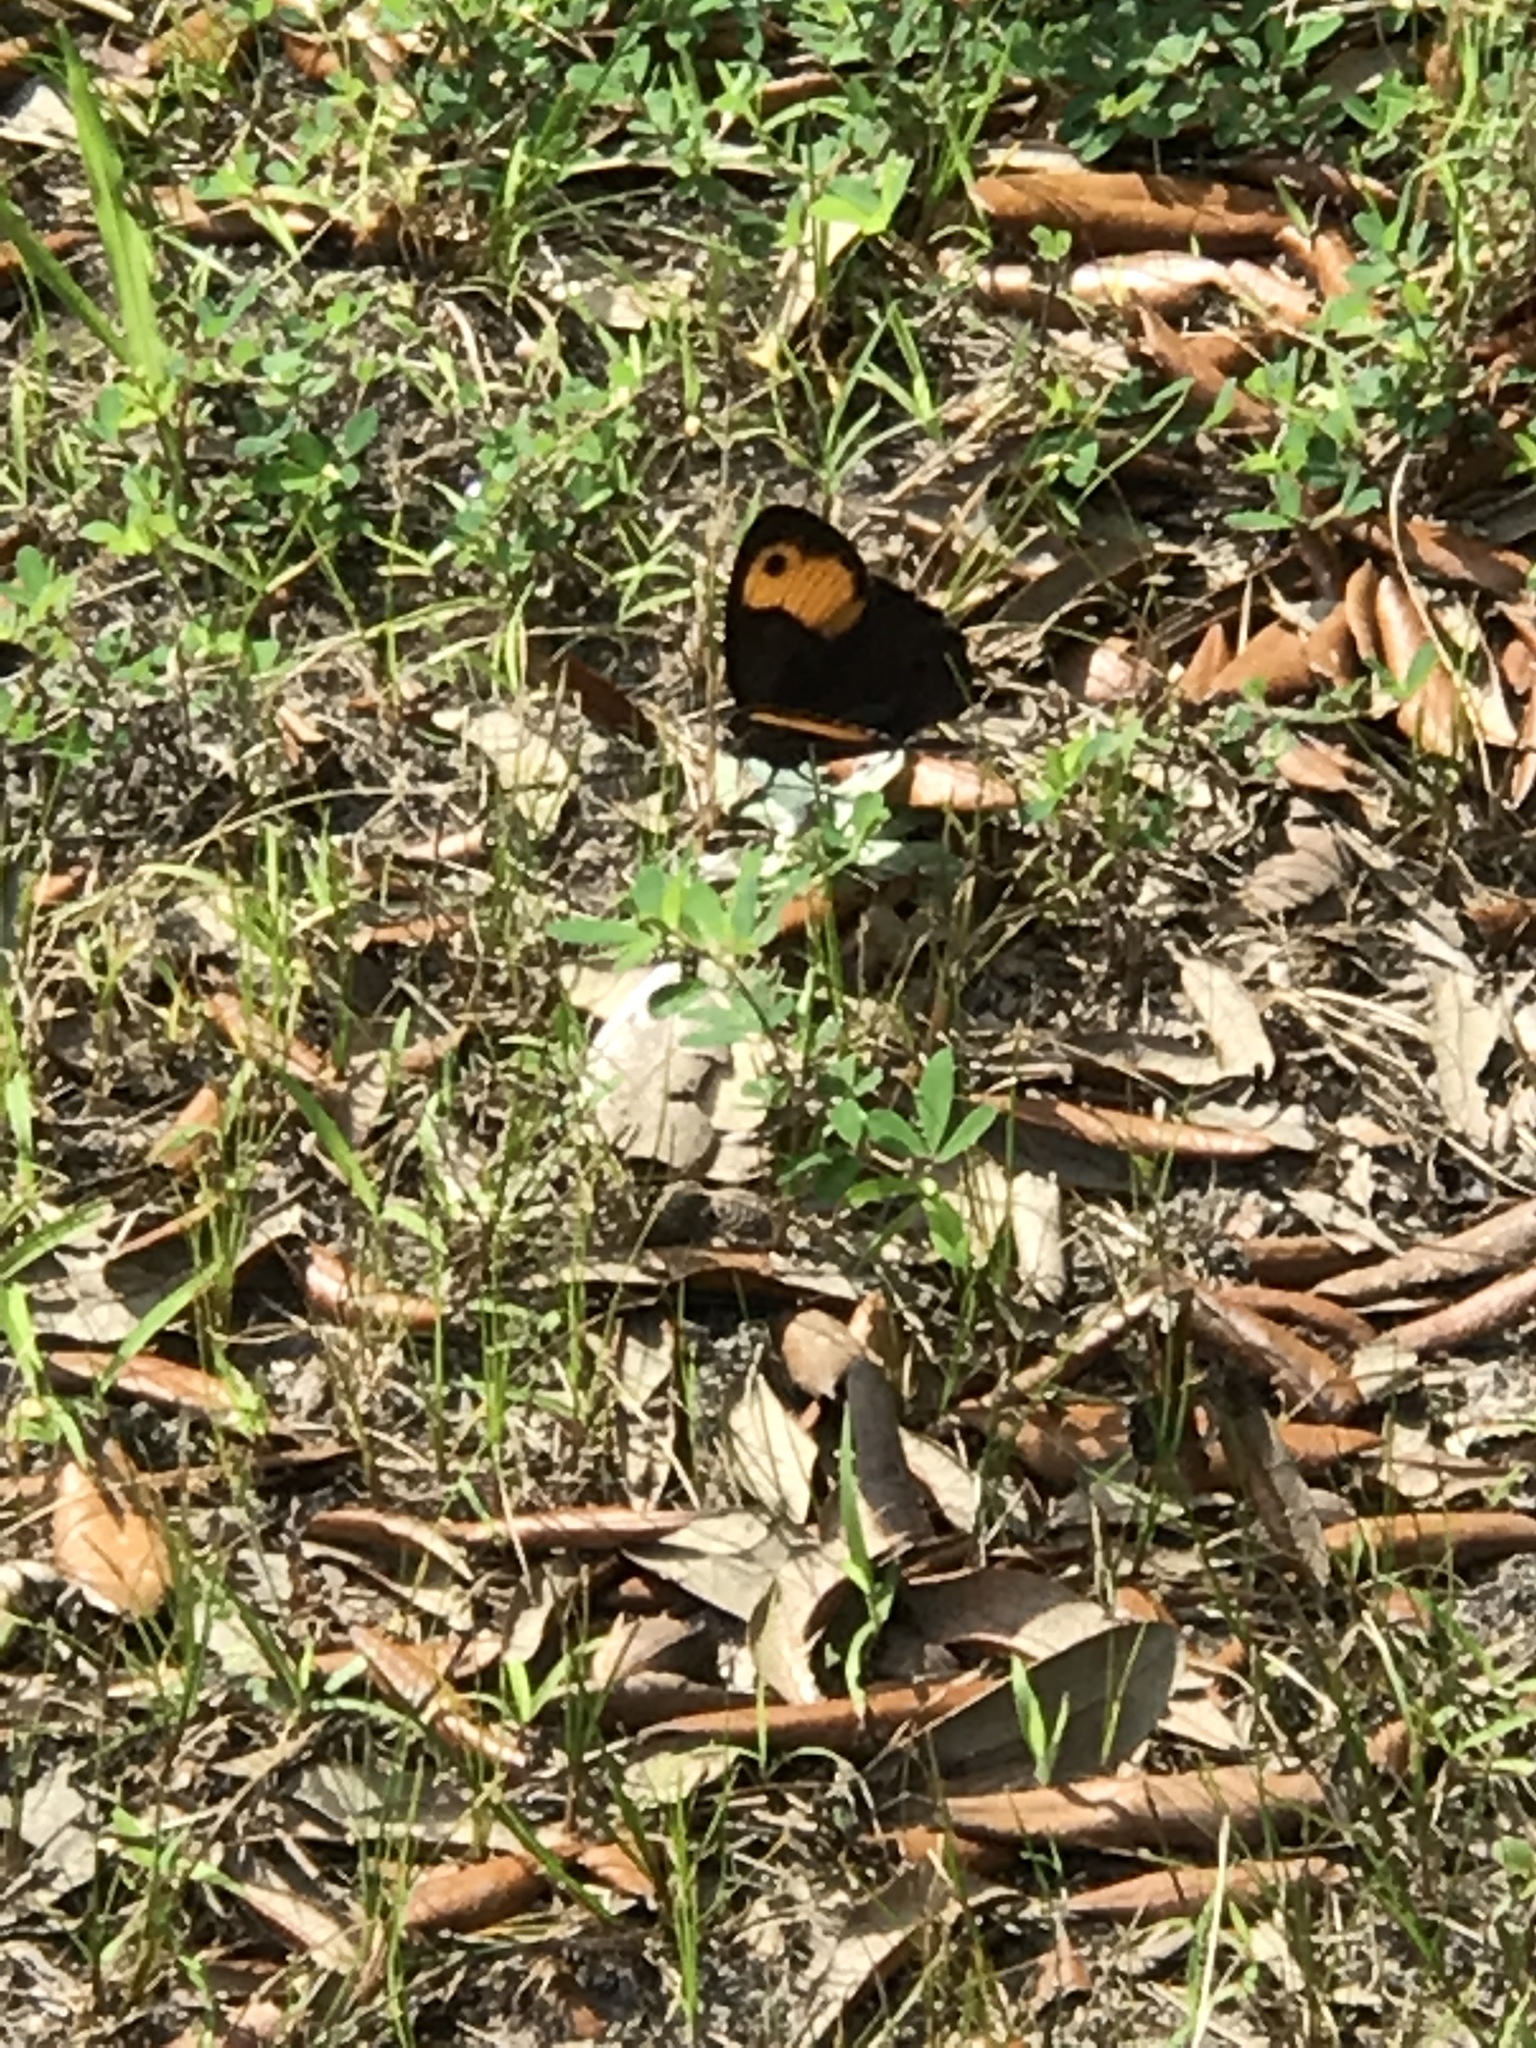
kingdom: Animalia
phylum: Arthropoda
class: Insecta
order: Lepidoptera
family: Nymphalidae
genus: Cercyonis
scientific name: Cercyonis pegala
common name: Common wood-nymph
